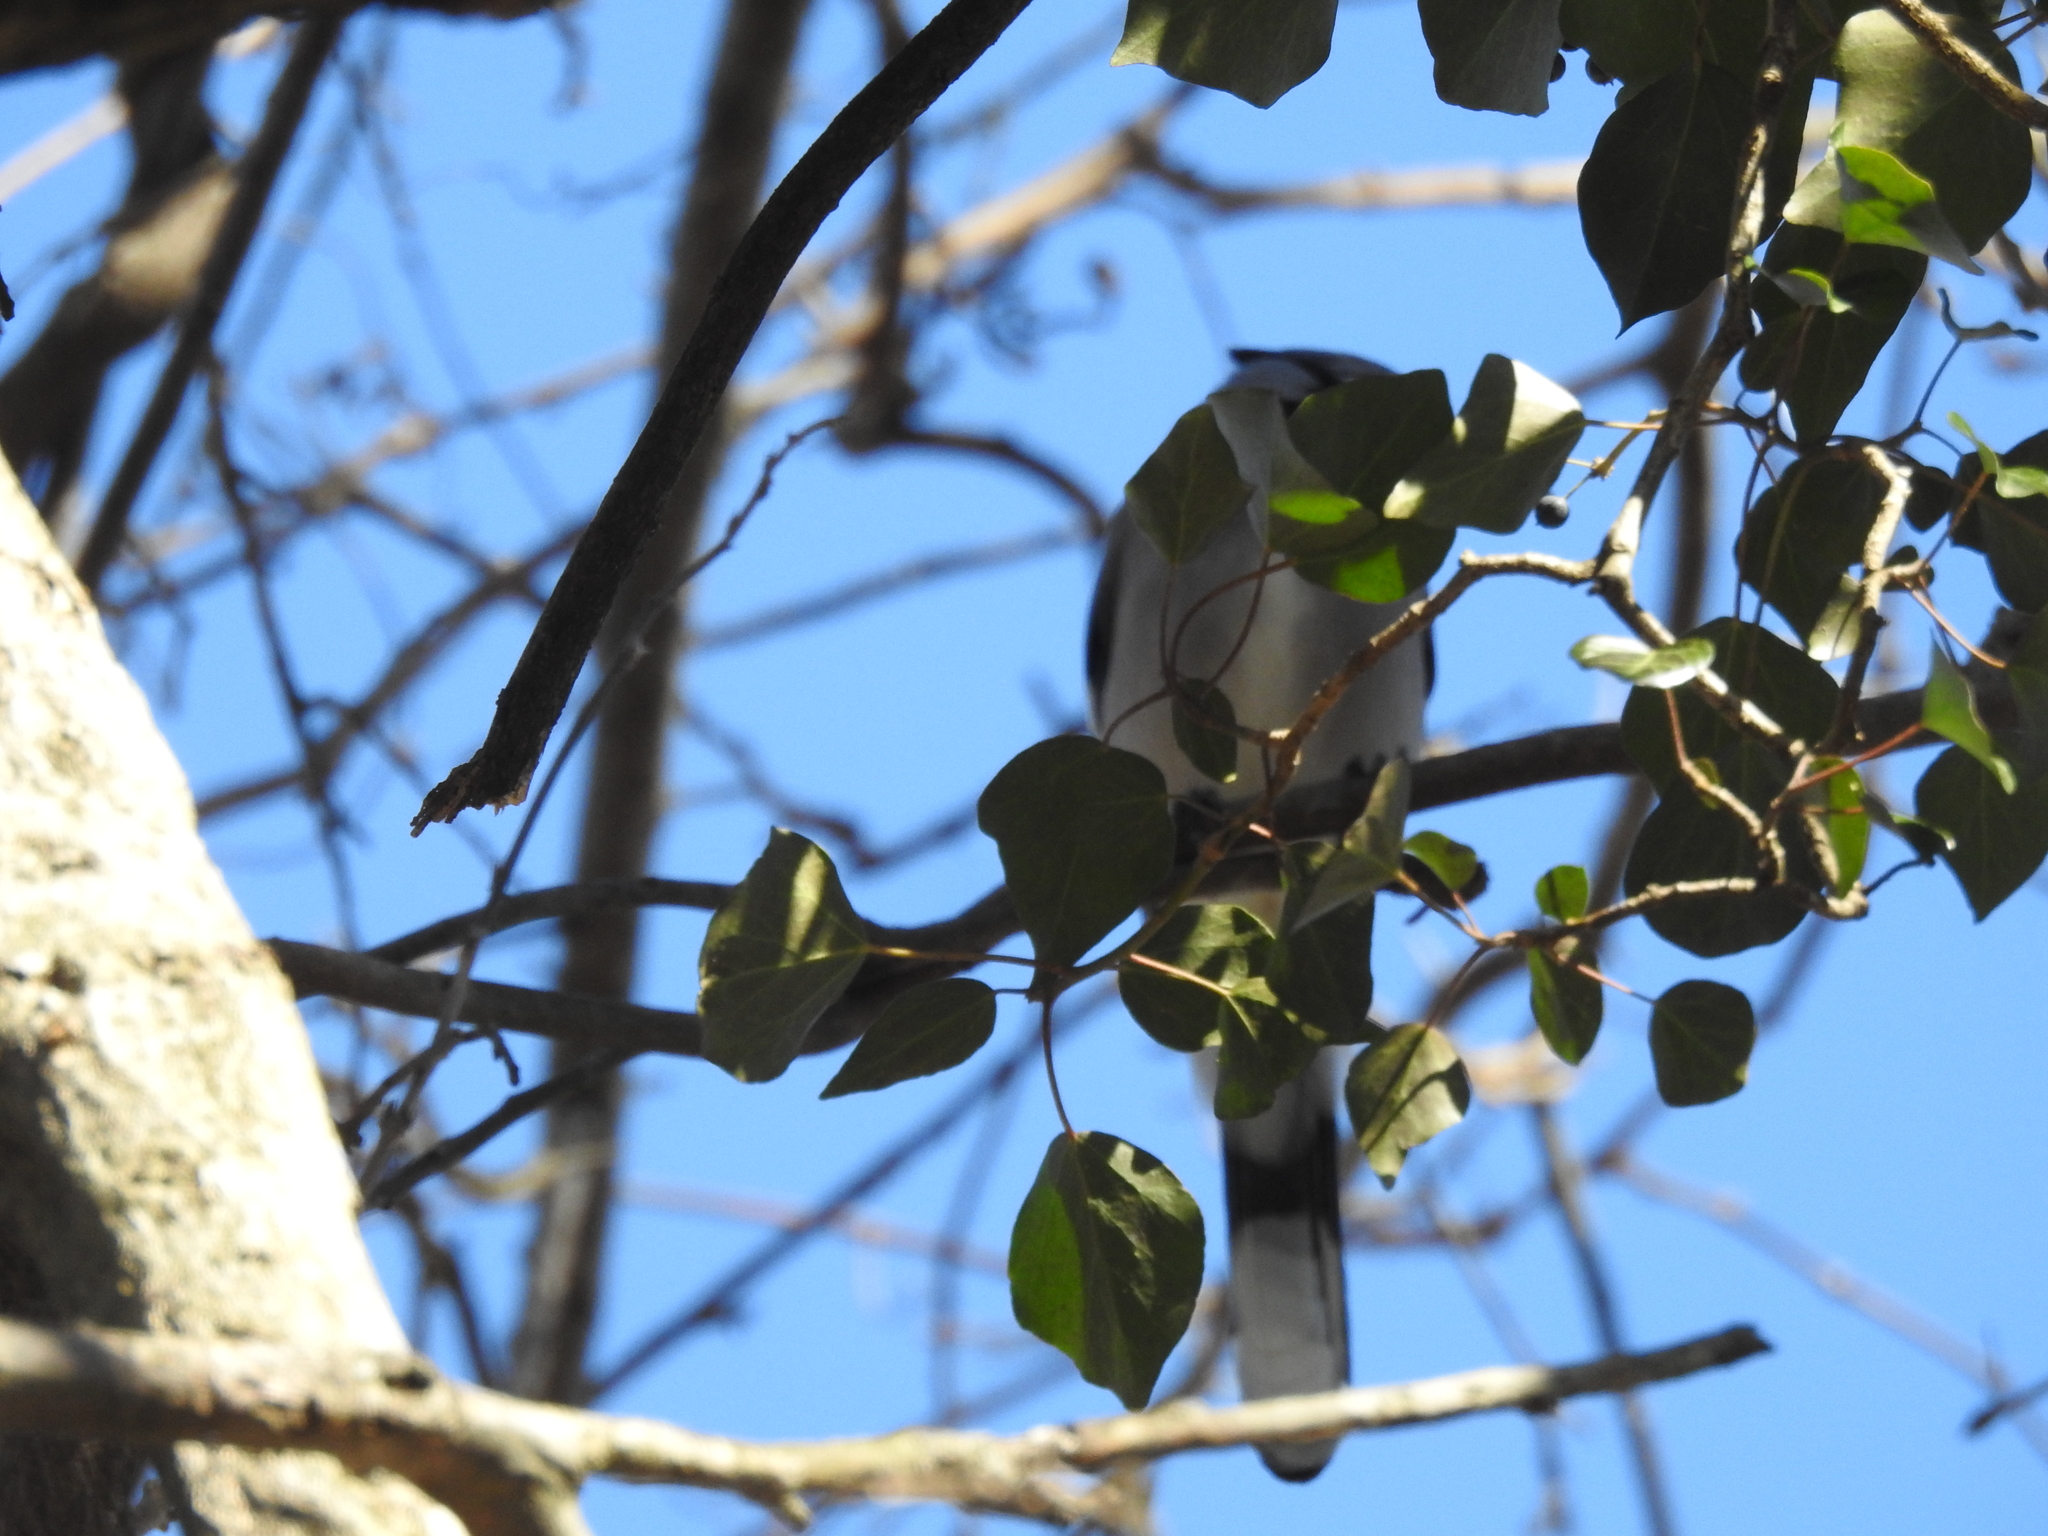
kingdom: Animalia
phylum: Chordata
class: Aves
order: Passeriformes
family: Corvidae
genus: Cyanocitta
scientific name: Cyanocitta cristata
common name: Blue jay
